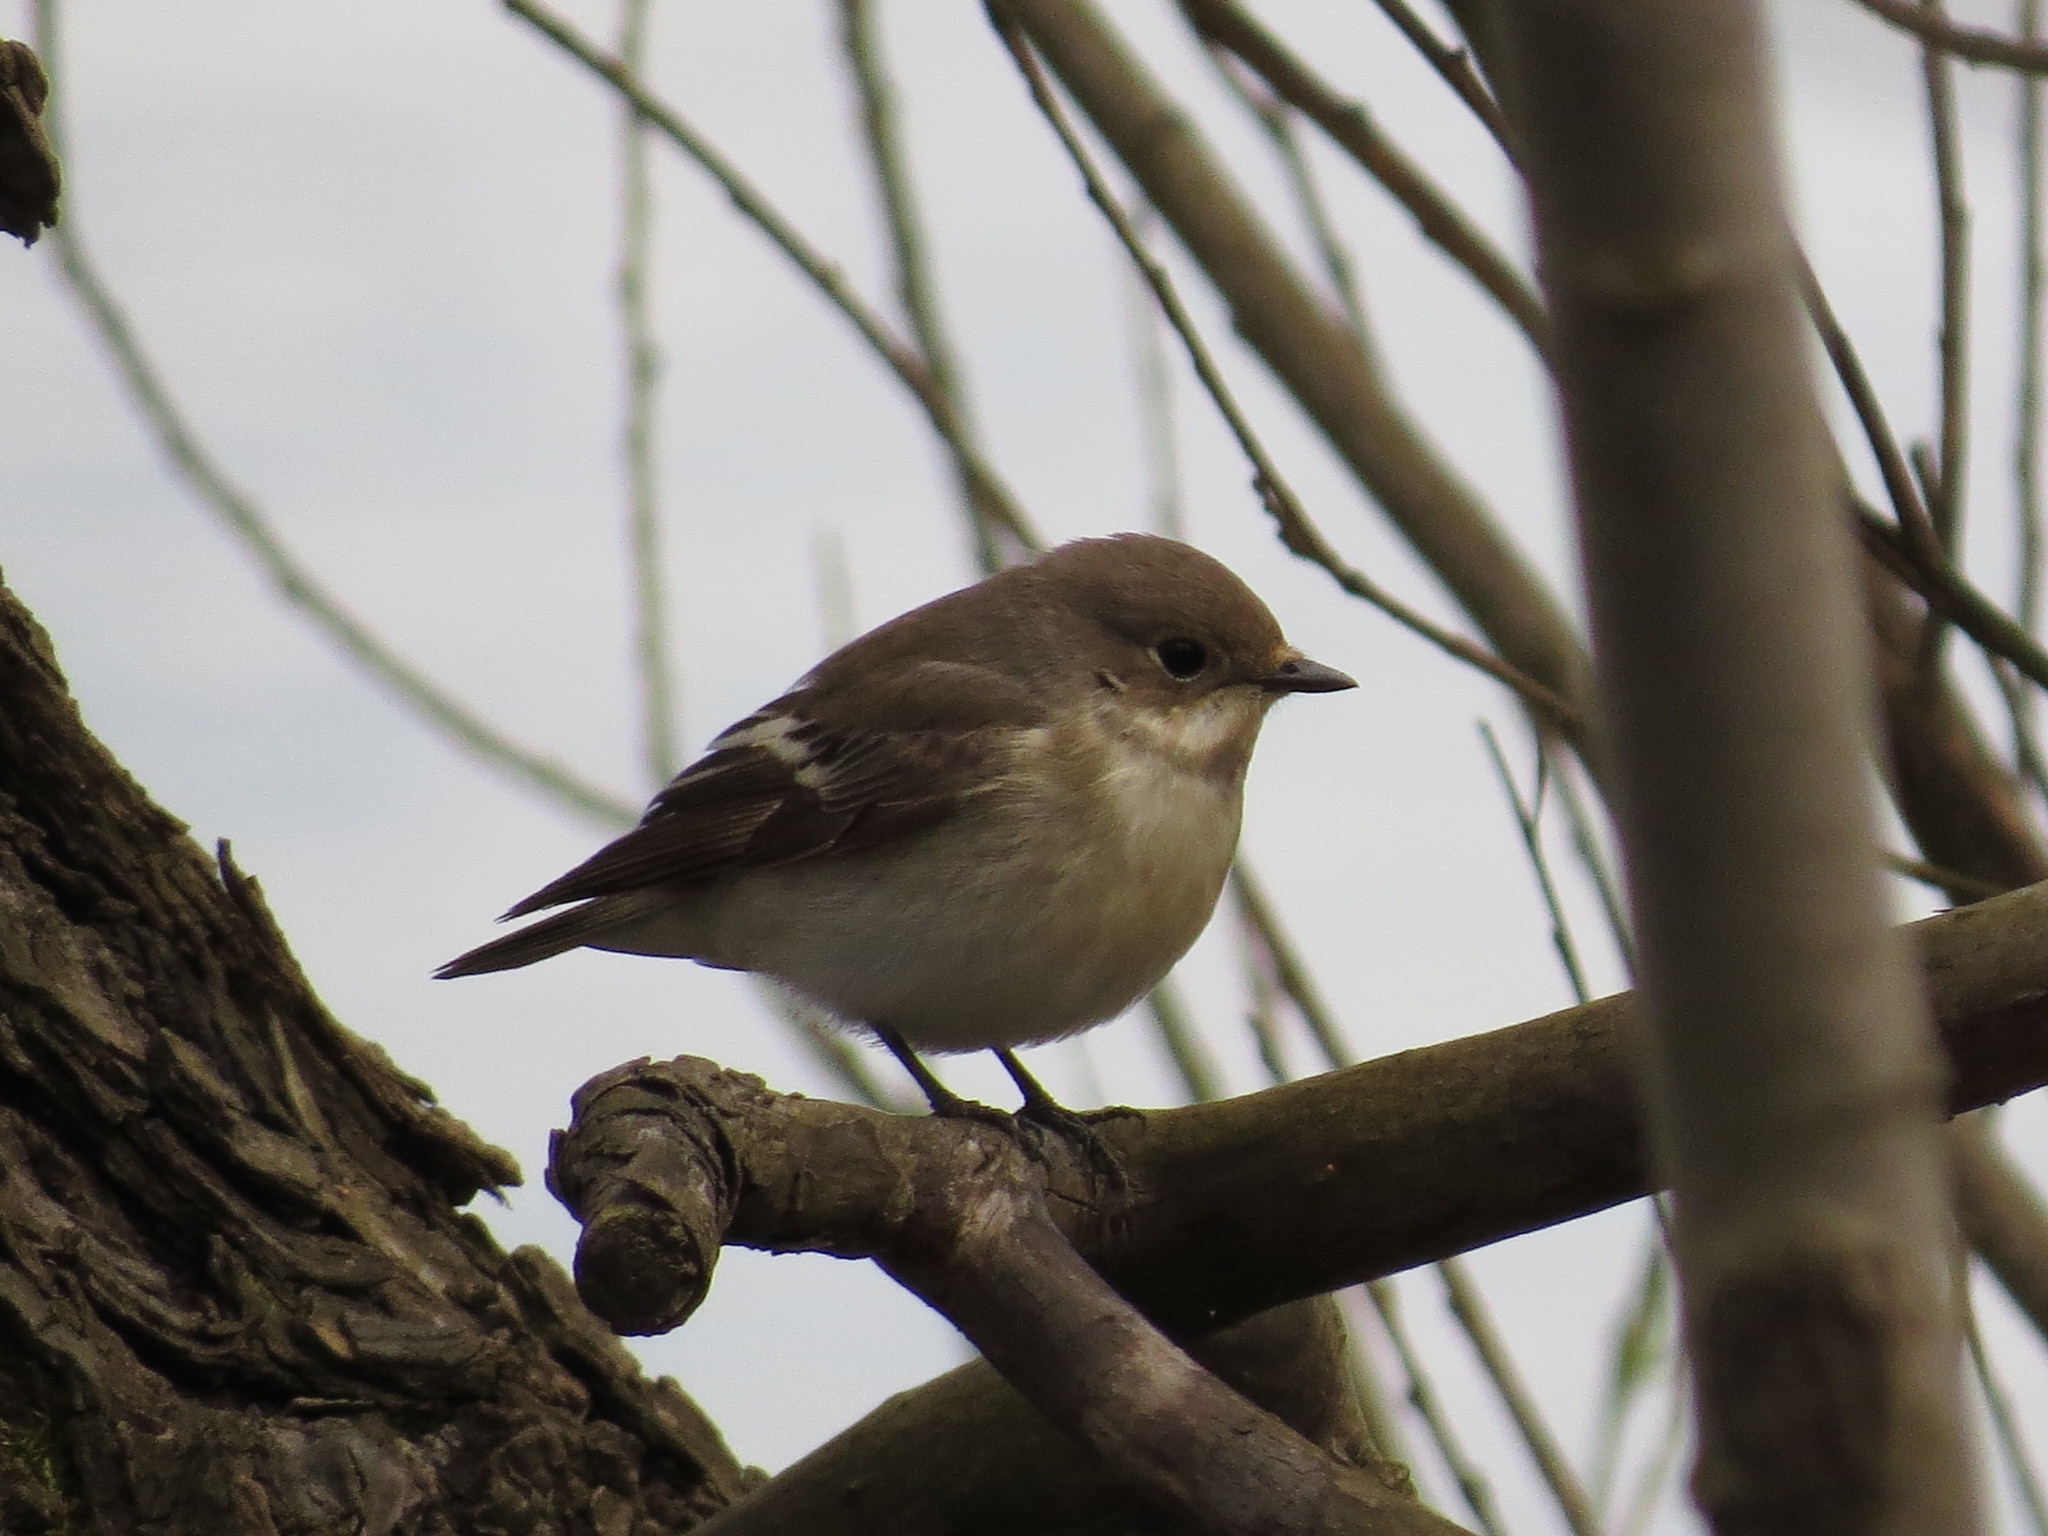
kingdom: Animalia
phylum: Chordata
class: Aves
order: Passeriformes
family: Muscicapidae
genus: Ficedula
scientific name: Ficedula hypoleuca
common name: European pied flycatcher
